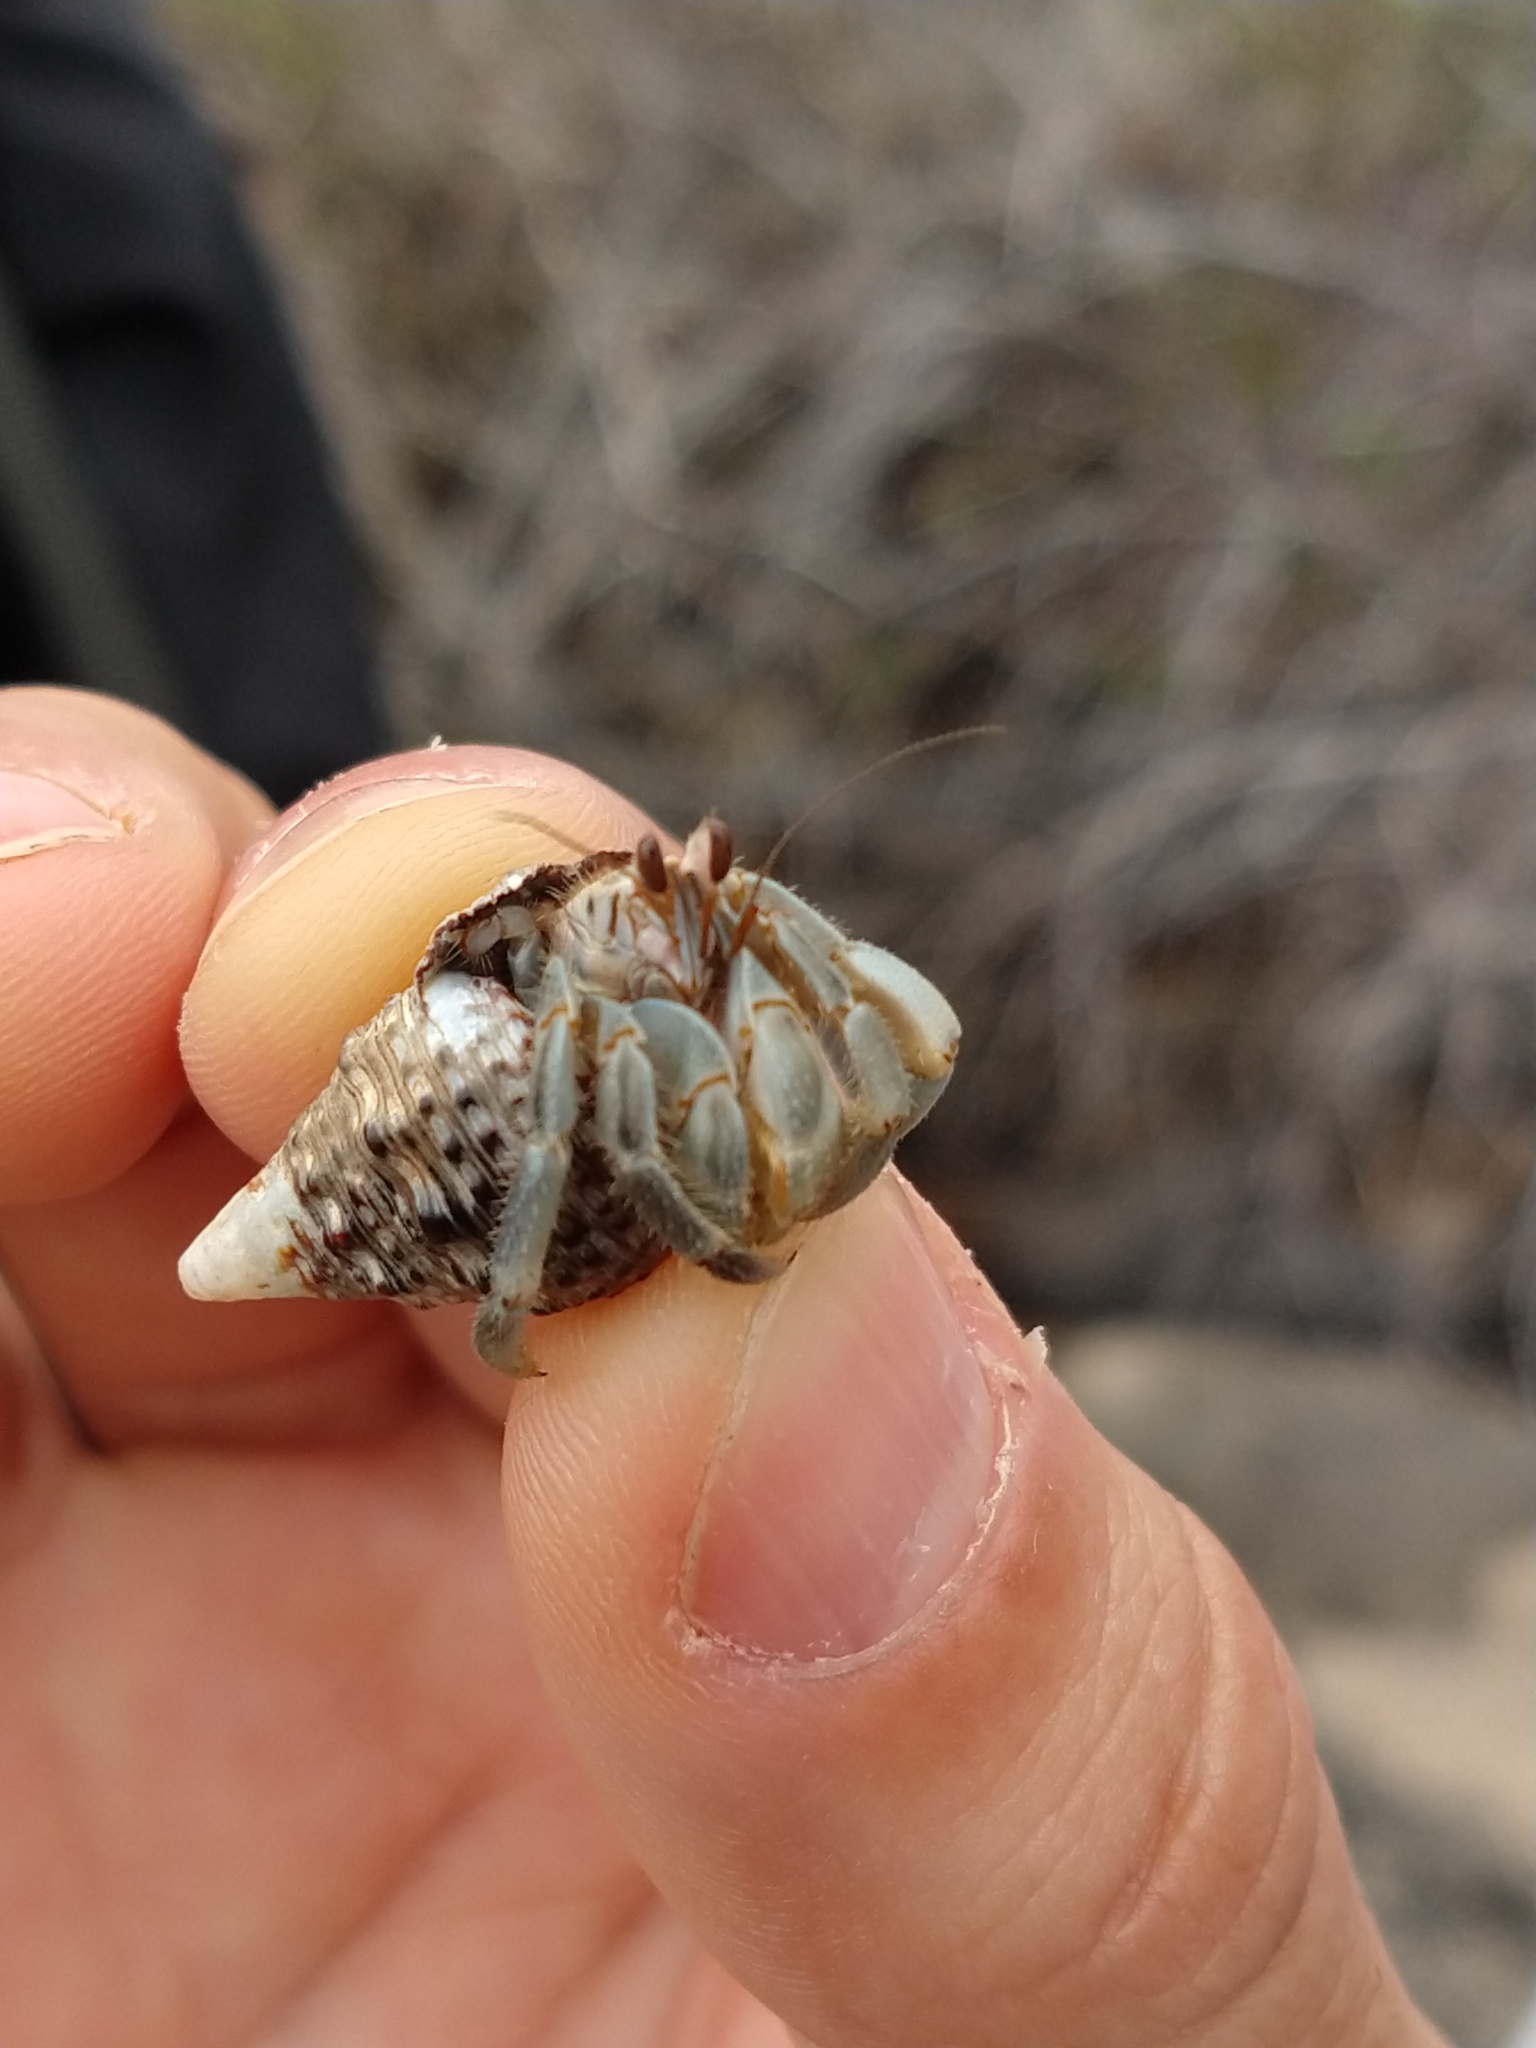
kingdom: Animalia
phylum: Arthropoda
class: Malacostraca
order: Decapoda
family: Coenobitidae
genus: Coenobita
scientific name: Coenobita compressus
